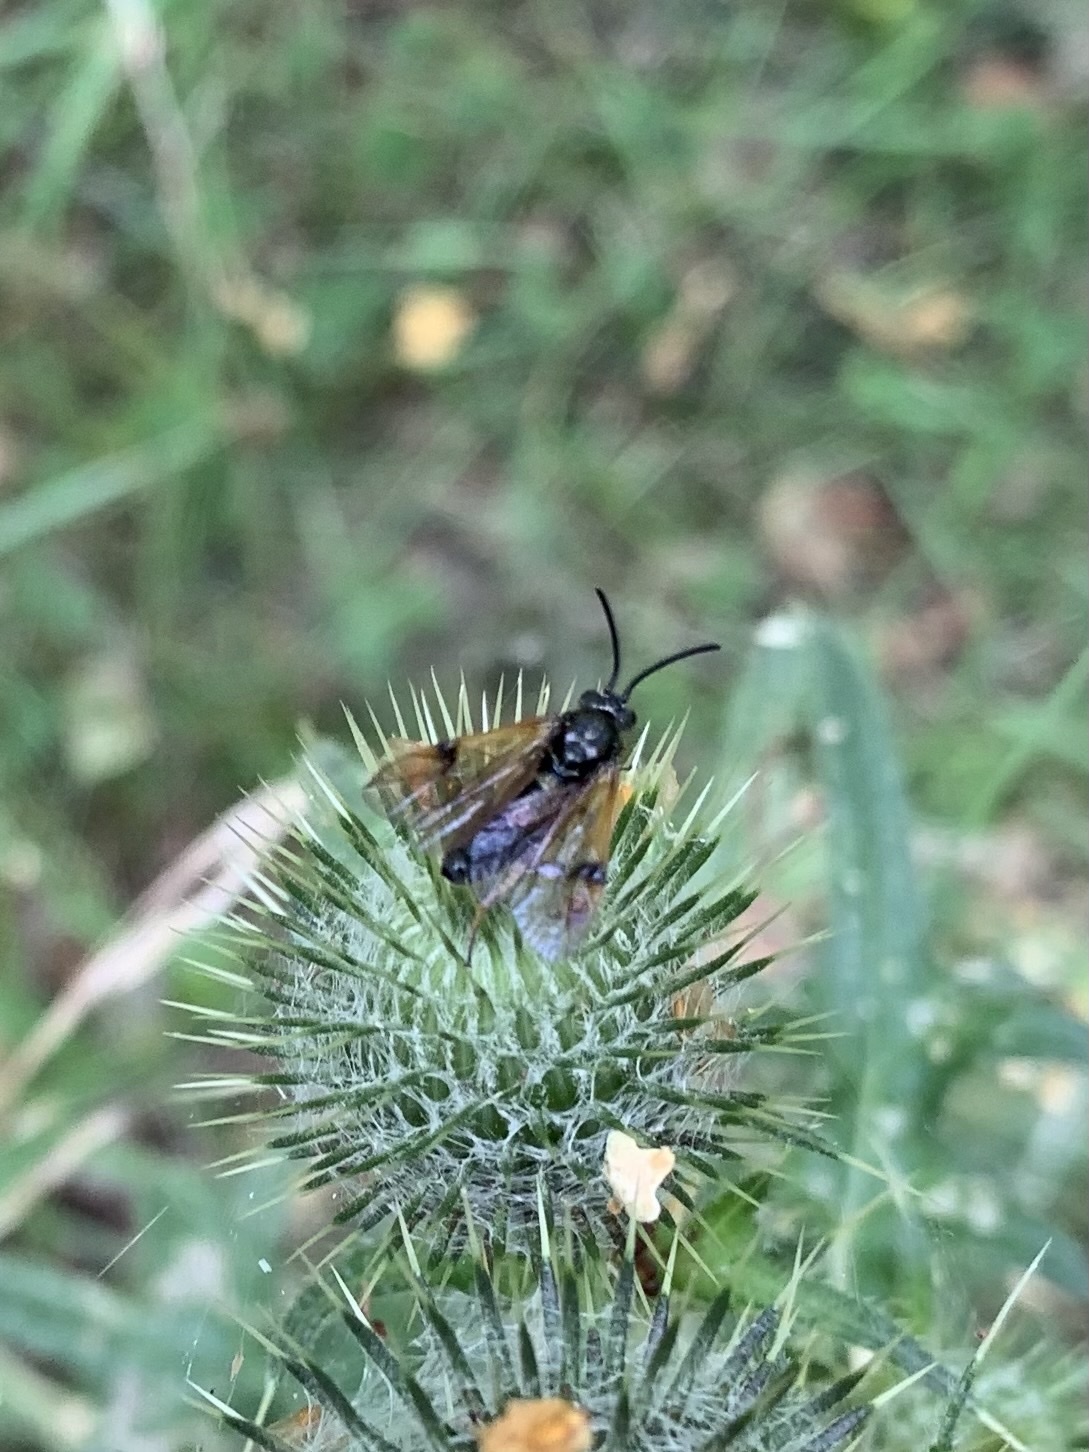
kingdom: Animalia
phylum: Arthropoda
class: Insecta
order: Hymenoptera
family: Argidae
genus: Arge
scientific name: Arge ustulata
